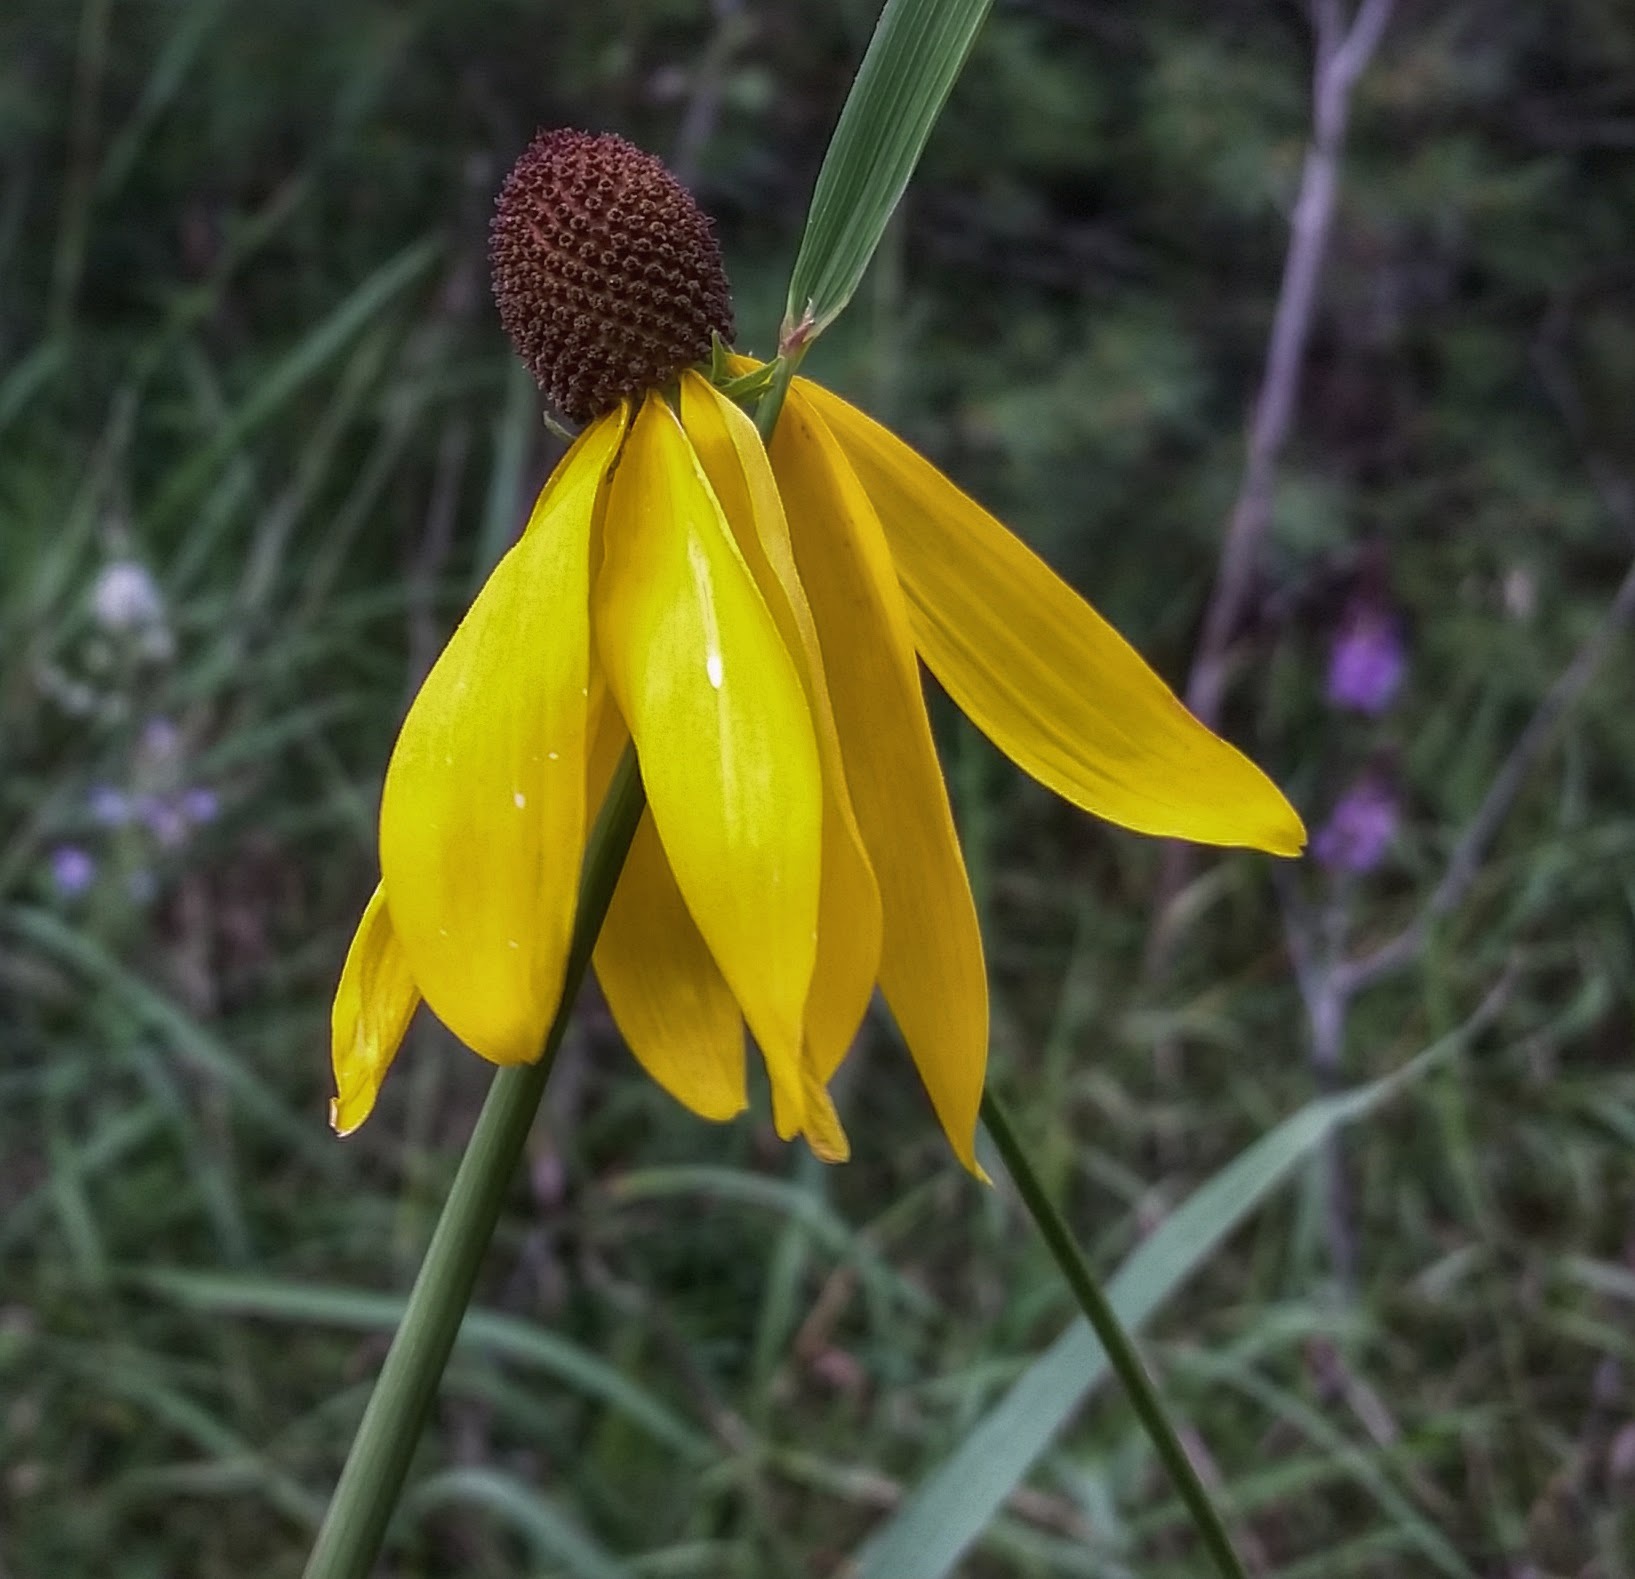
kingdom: Plantae
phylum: Tracheophyta
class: Magnoliopsida
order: Asterales
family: Asteraceae
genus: Ratibida
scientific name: Ratibida pinnata
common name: Drooping prairie-coneflower
